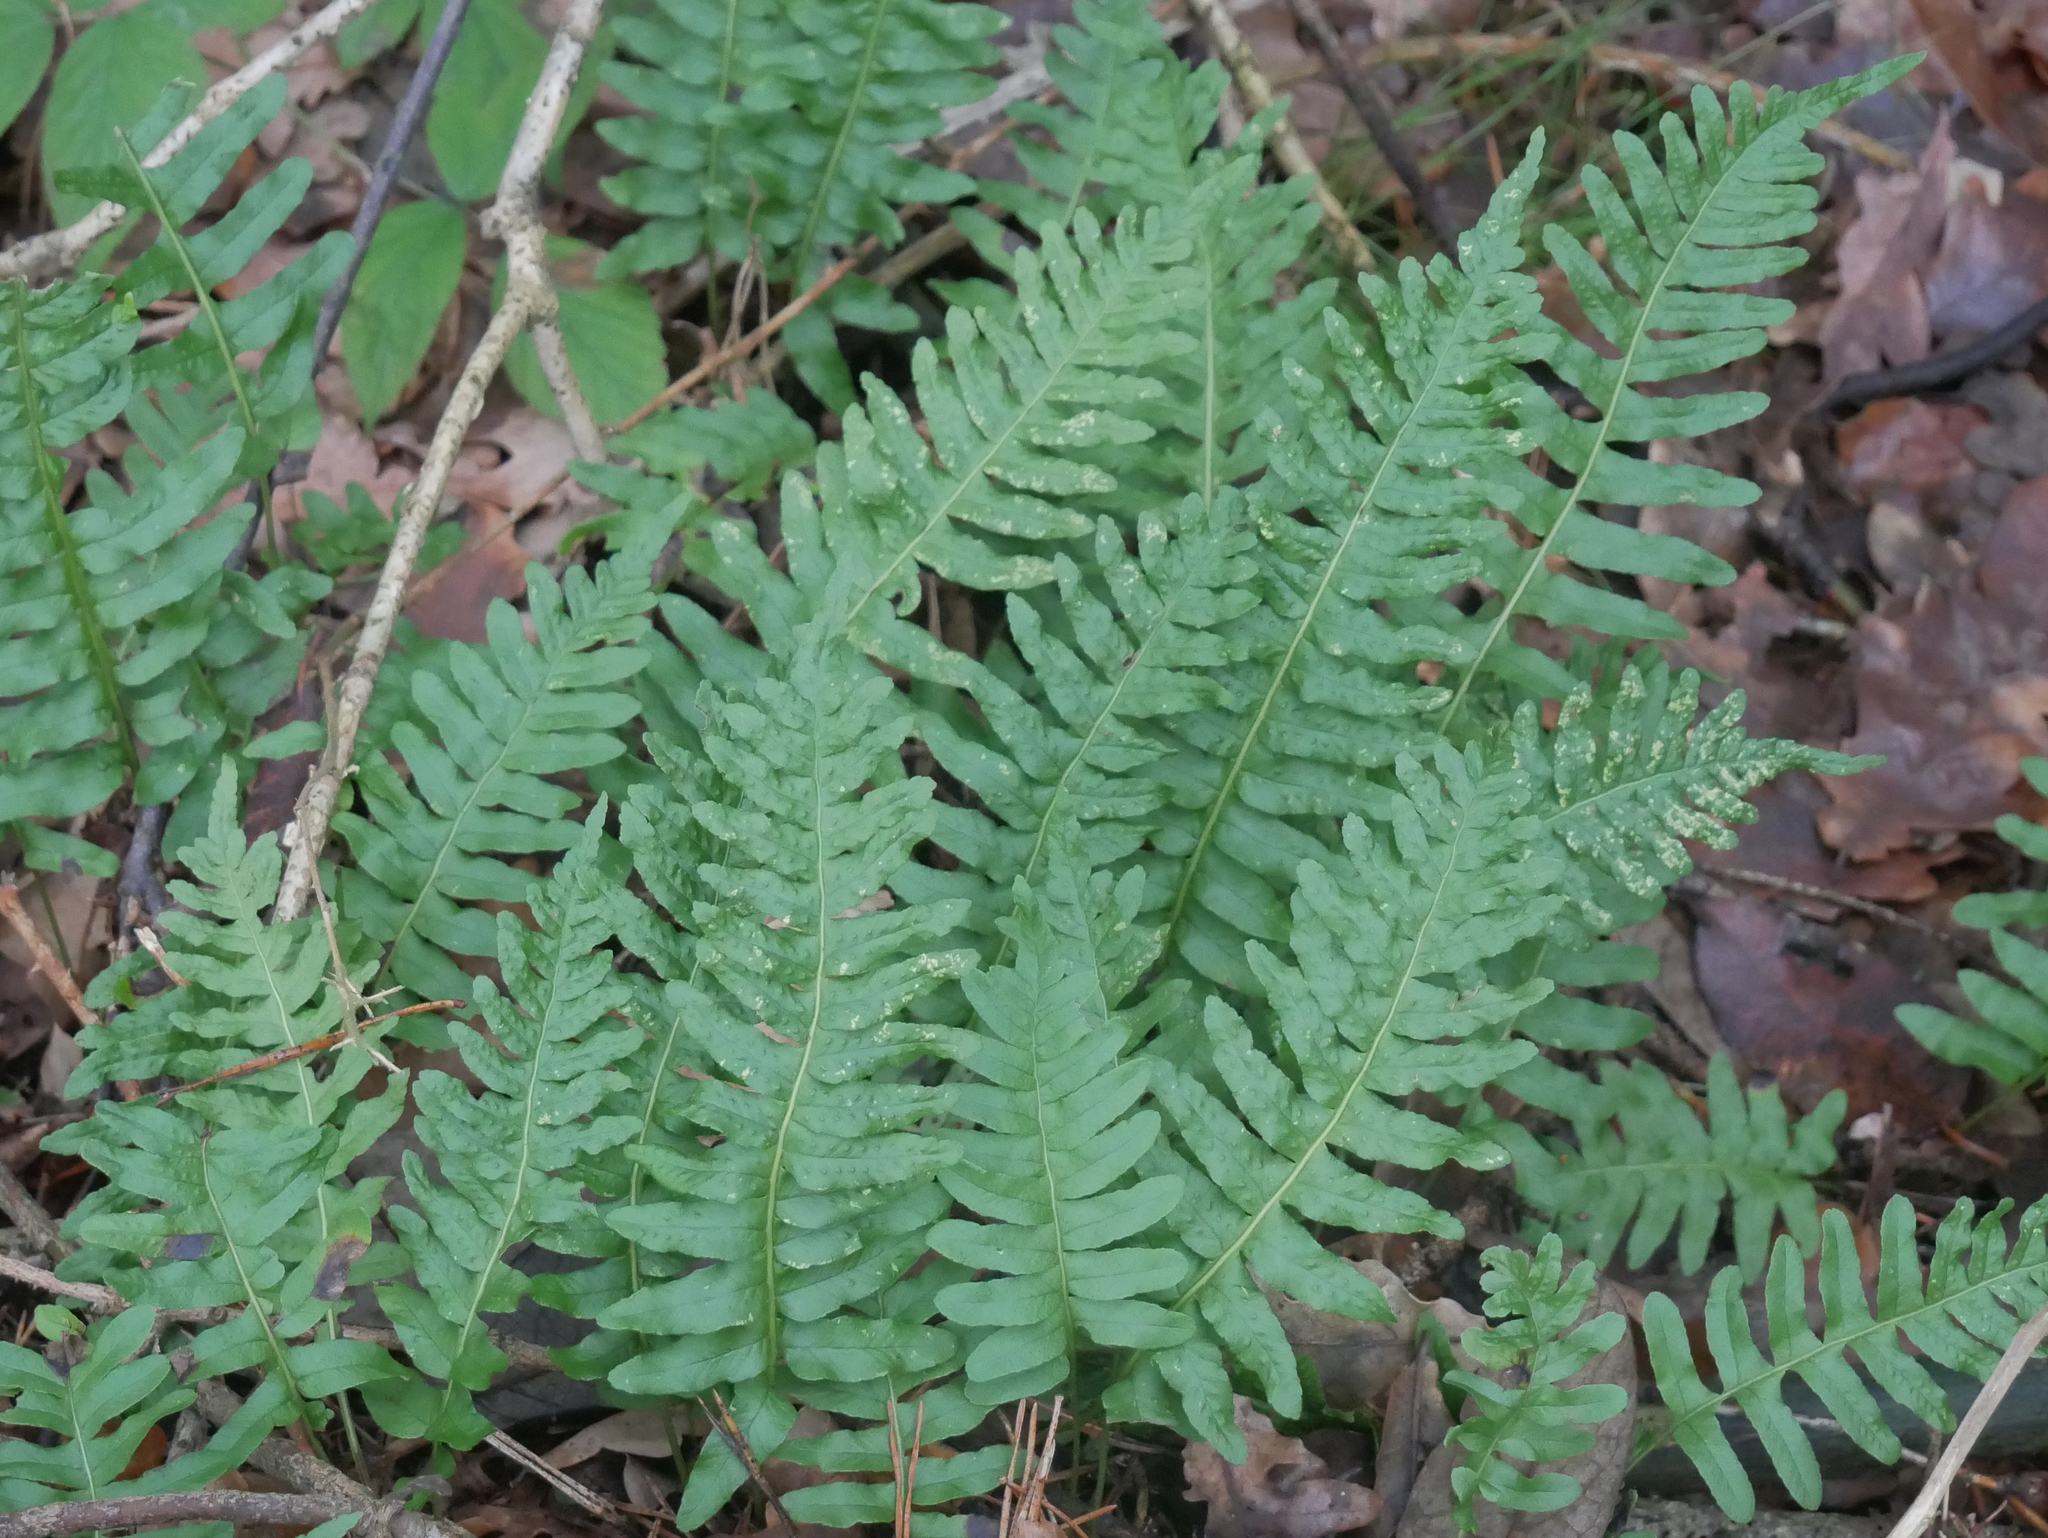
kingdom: Plantae
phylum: Tracheophyta
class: Polypodiopsida
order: Polypodiales
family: Polypodiaceae
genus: Polypodium
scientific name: Polypodium vulgare
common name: Common polypody
